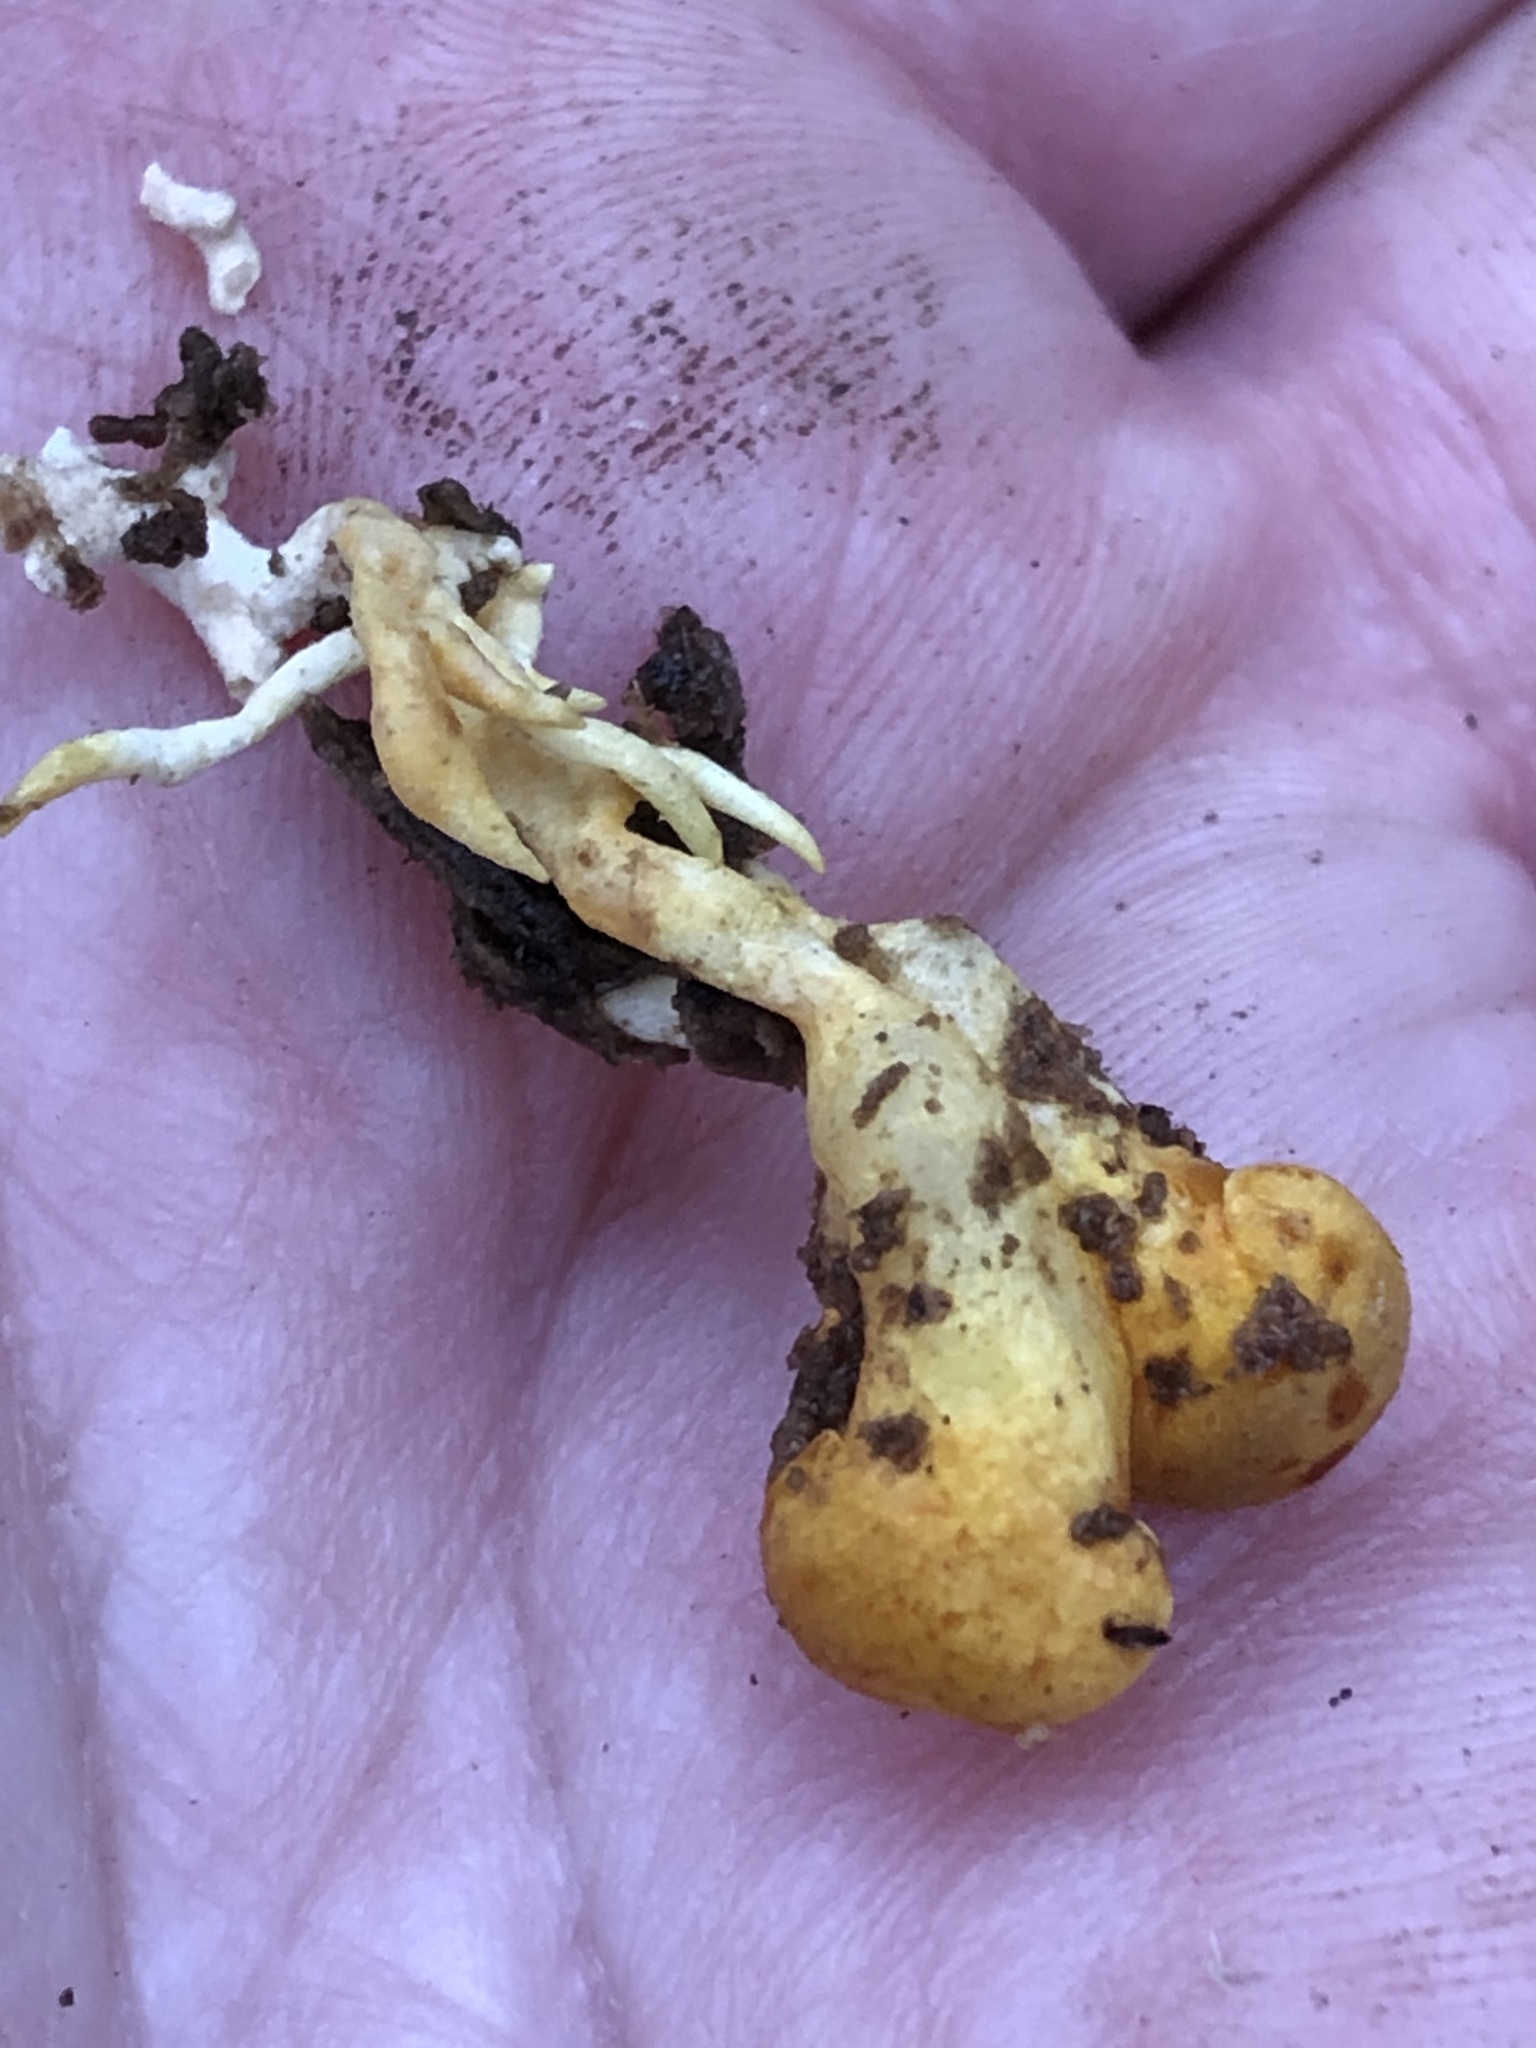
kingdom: Fungi
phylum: Basidiomycota
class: Agaricomycetes
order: Agaricales
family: Sarcomyxaceae
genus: Sarcomyxa
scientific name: Sarcomyxa serotina
